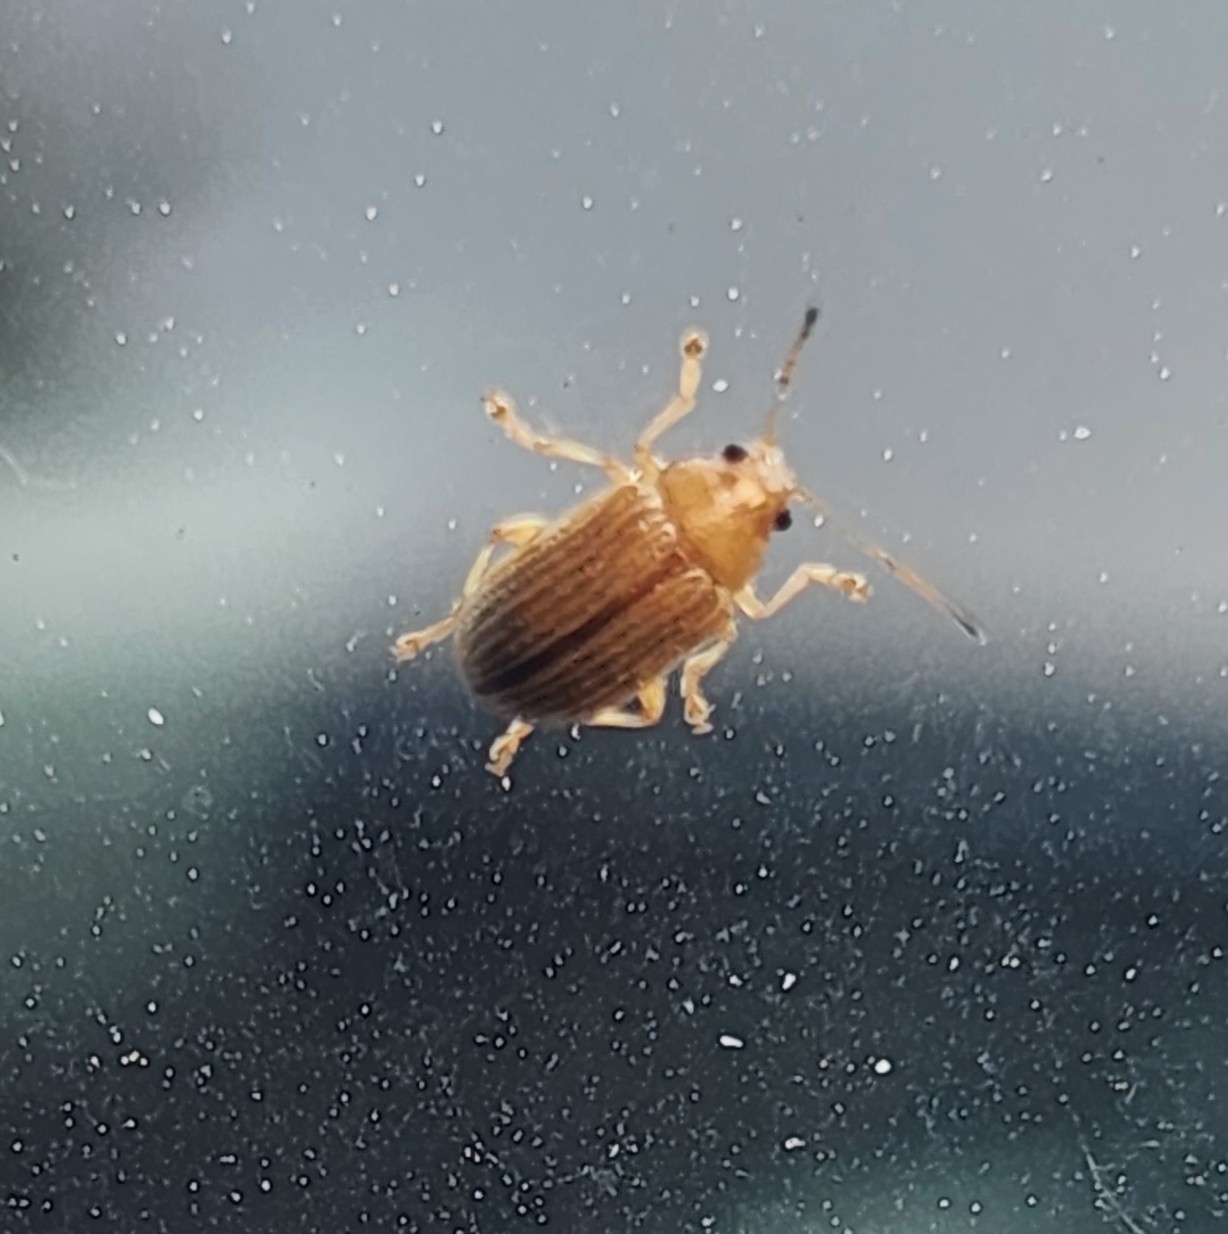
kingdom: Animalia
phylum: Arthropoda
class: Insecta
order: Coleoptera
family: Chrysomelidae
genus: Colaspis
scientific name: Colaspis brunnea
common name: Grape colaspis
